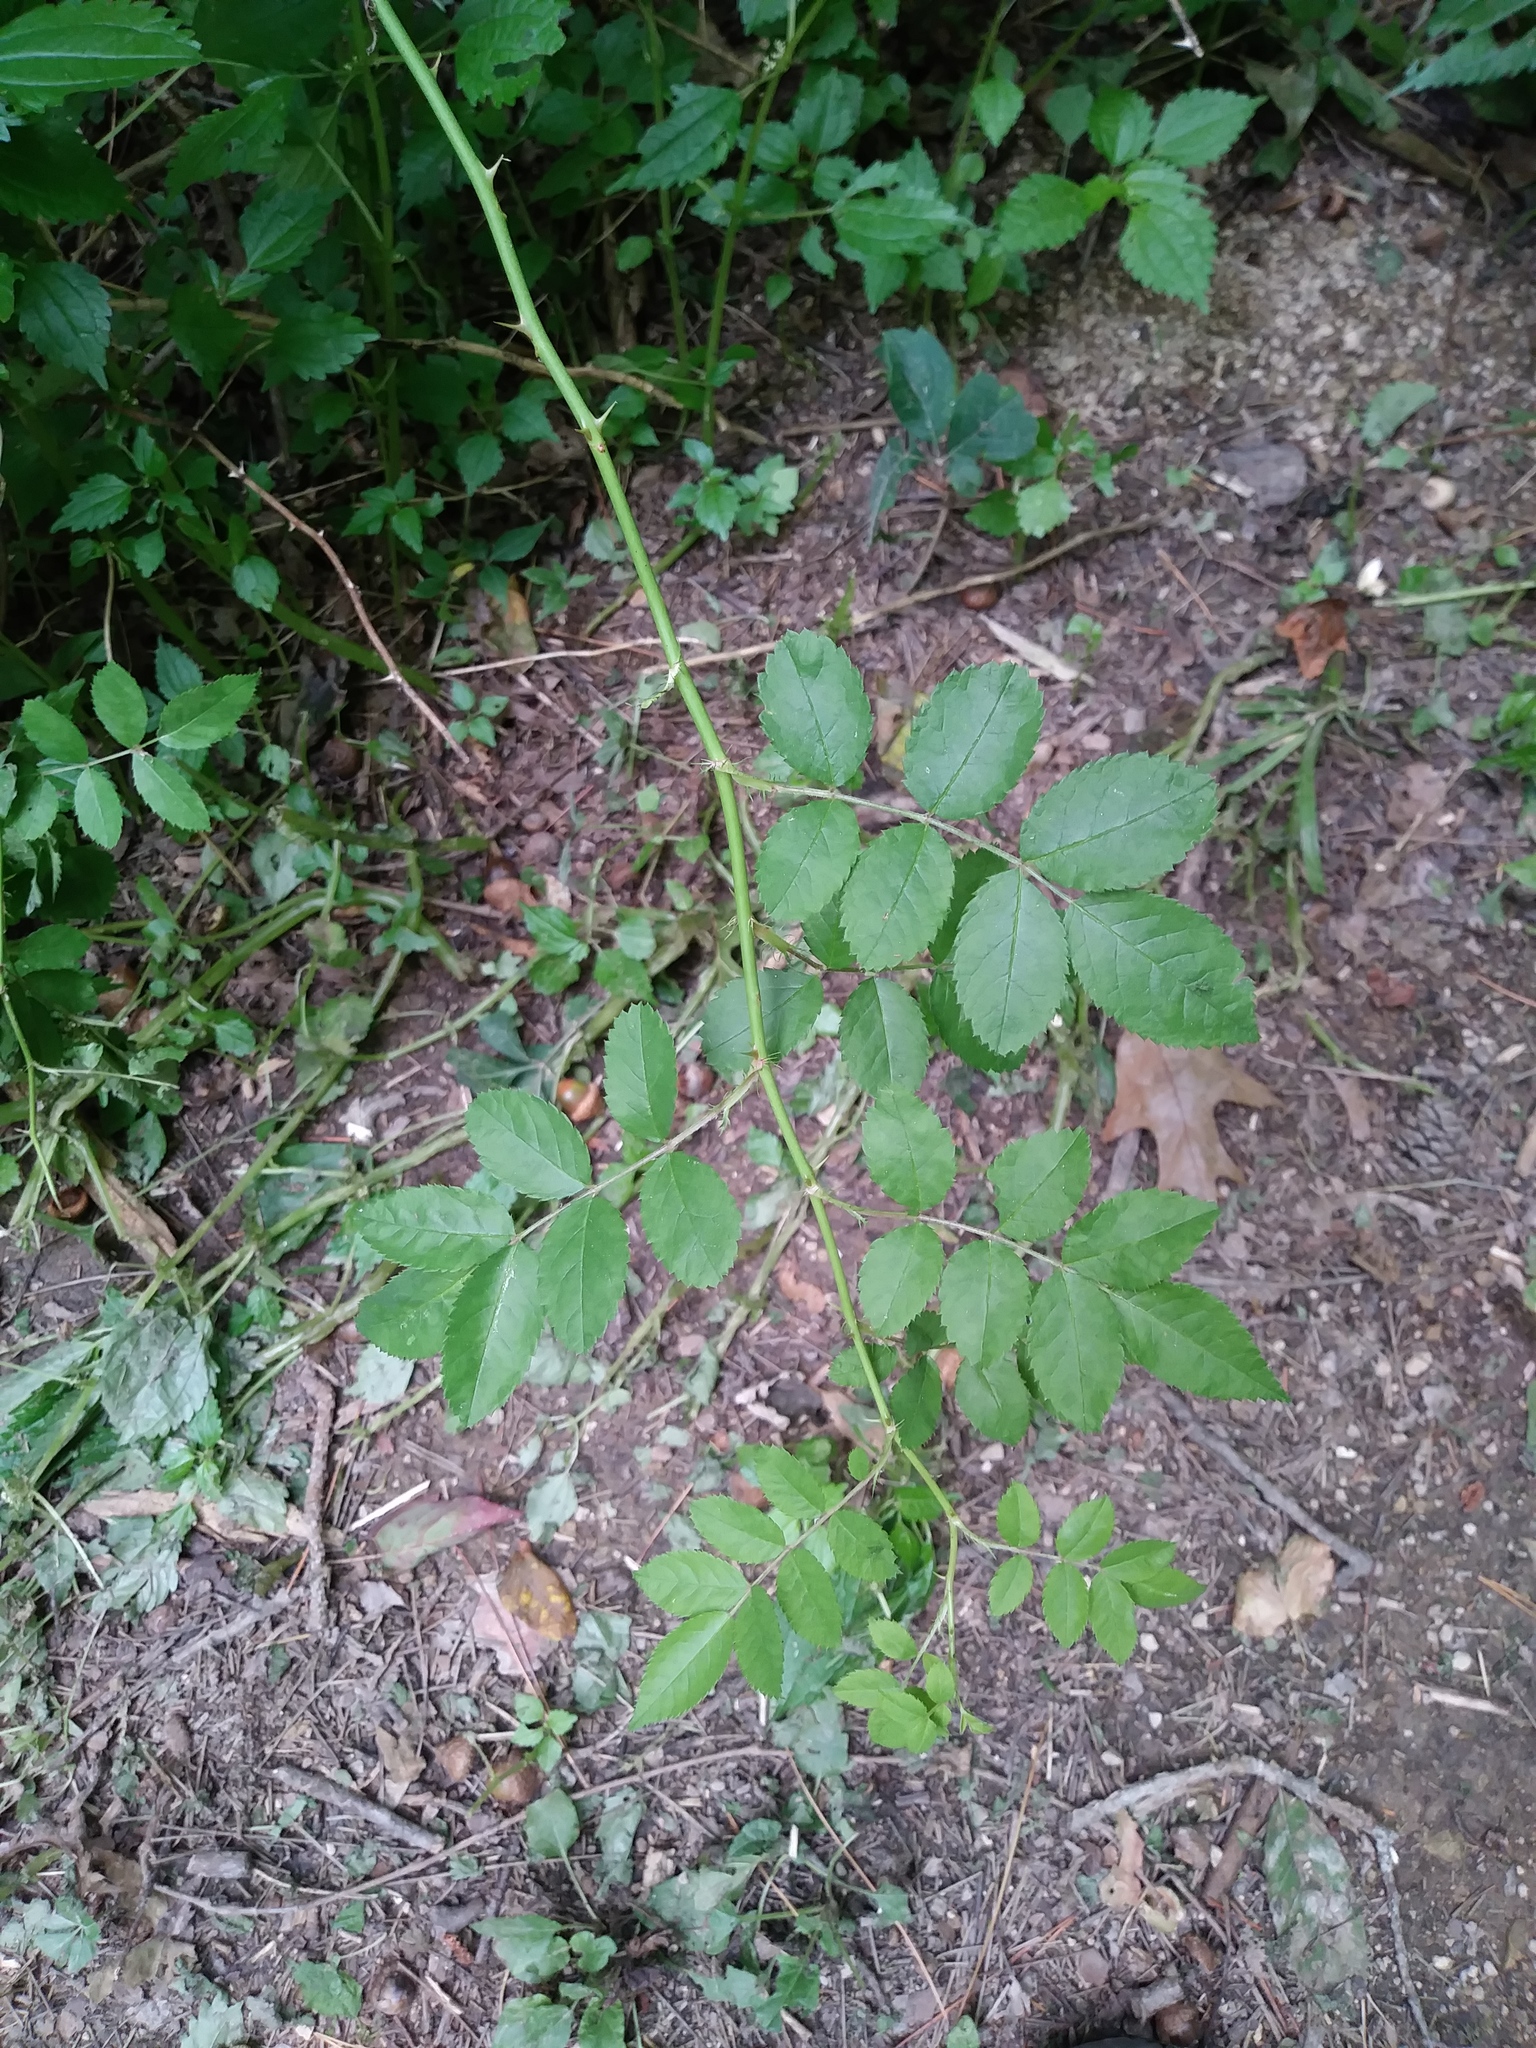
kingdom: Plantae
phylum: Tracheophyta
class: Magnoliopsida
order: Rosales
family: Rosaceae
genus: Rosa
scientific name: Rosa multiflora
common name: Multiflora rose
